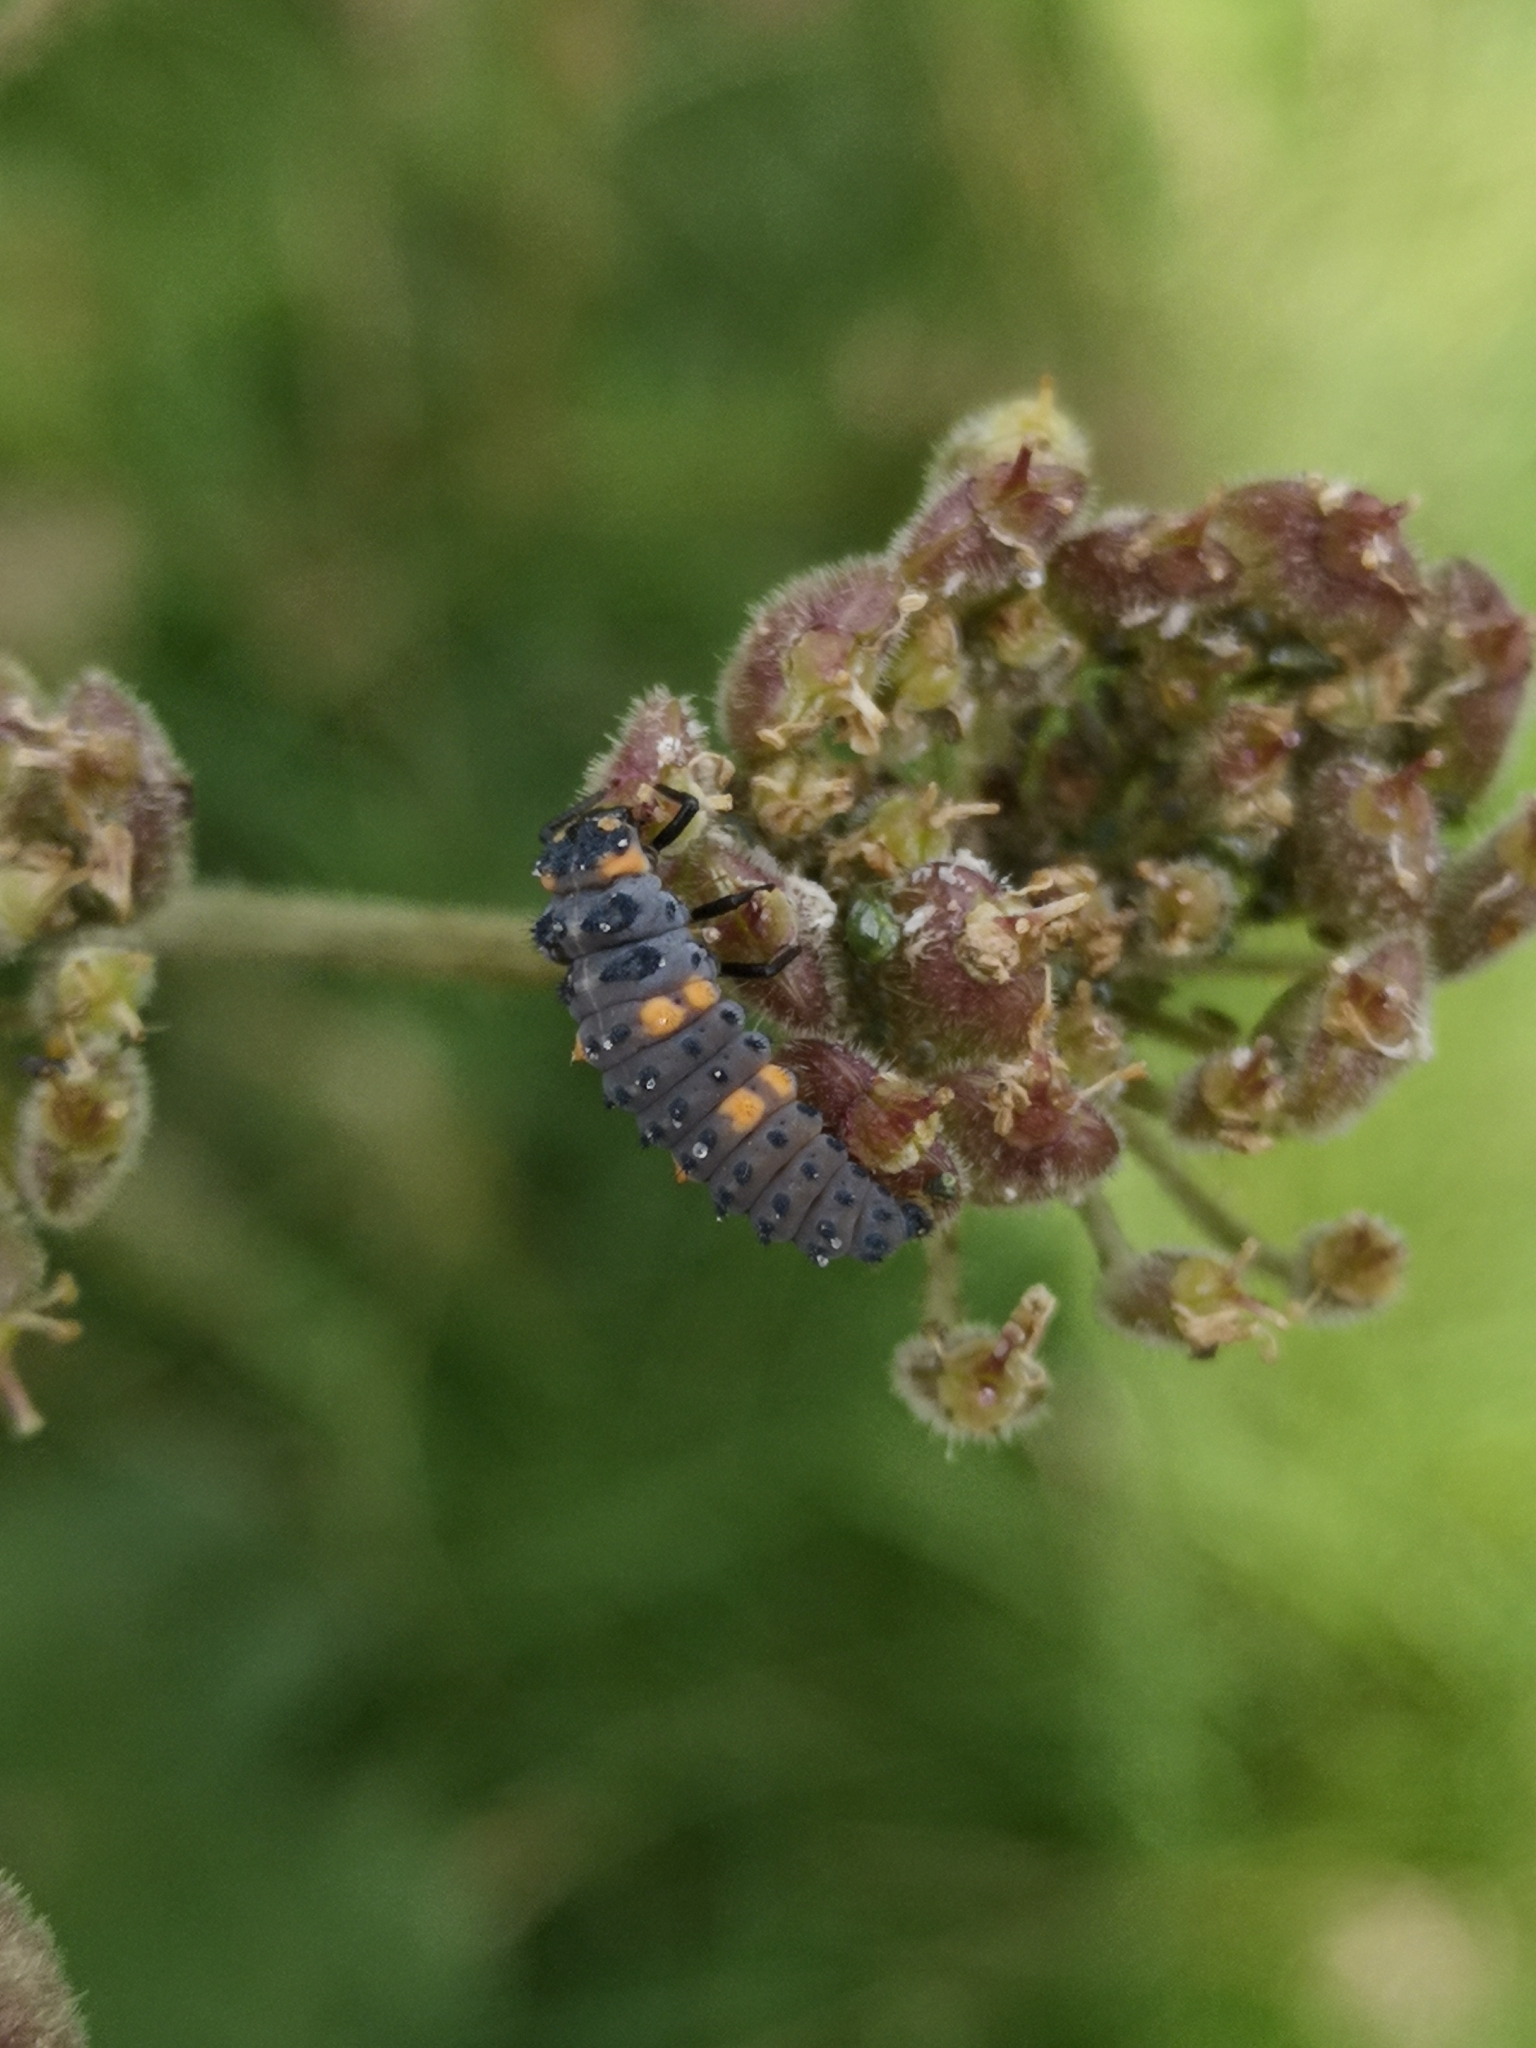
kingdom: Animalia
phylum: Arthropoda
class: Insecta
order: Coleoptera
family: Coccinellidae
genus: Coccinella
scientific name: Coccinella septempunctata
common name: Sevenspotted lady beetle
